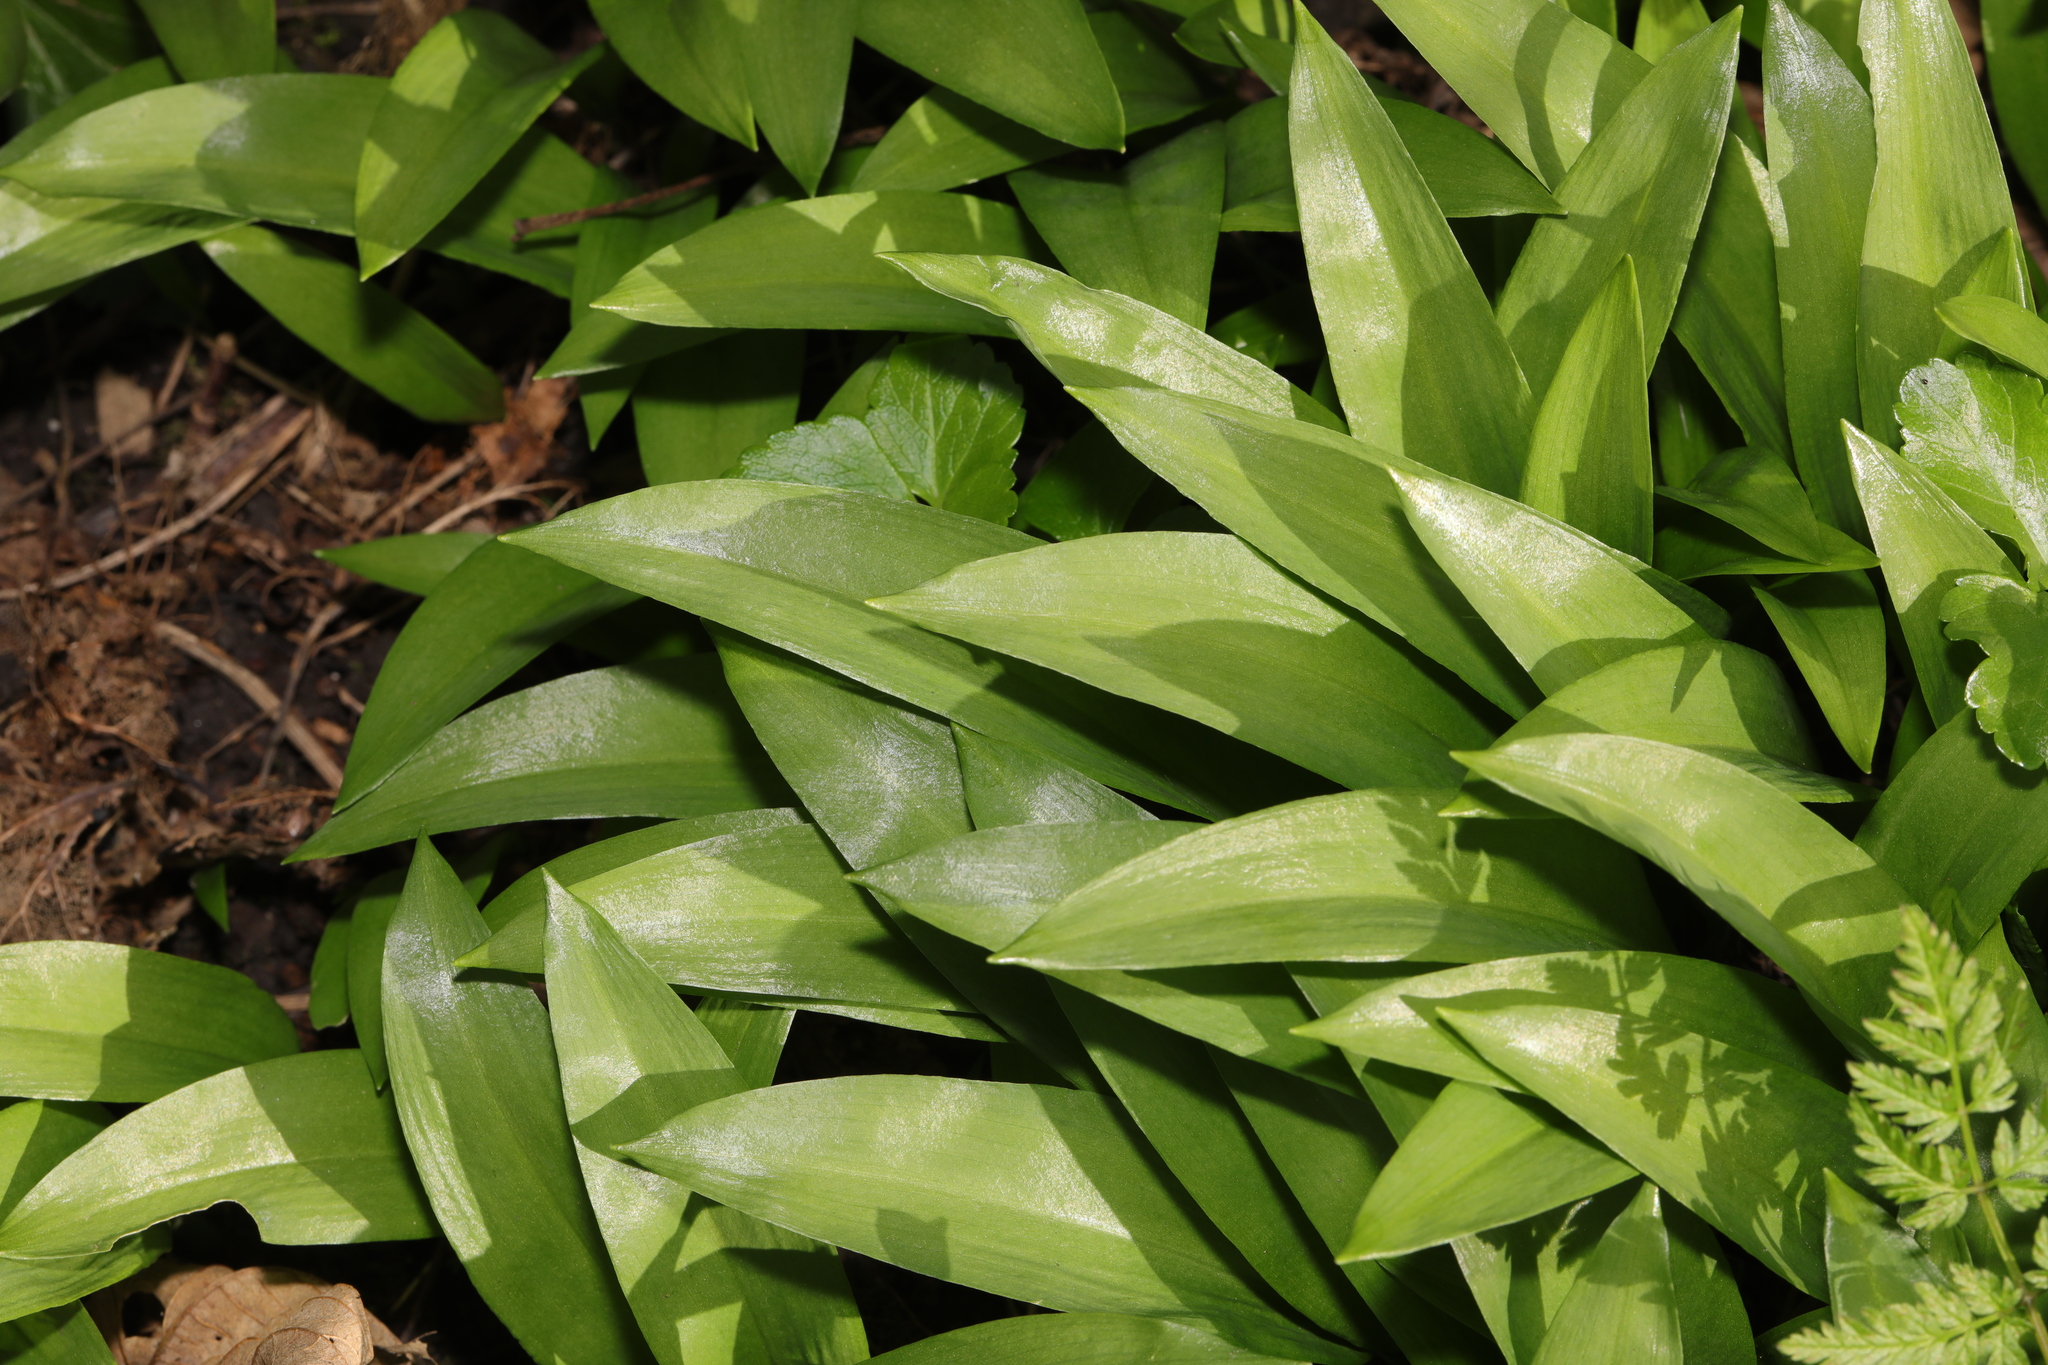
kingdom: Plantae
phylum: Tracheophyta
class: Liliopsida
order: Asparagales
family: Amaryllidaceae
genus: Allium
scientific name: Allium ursinum
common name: Ramsons
